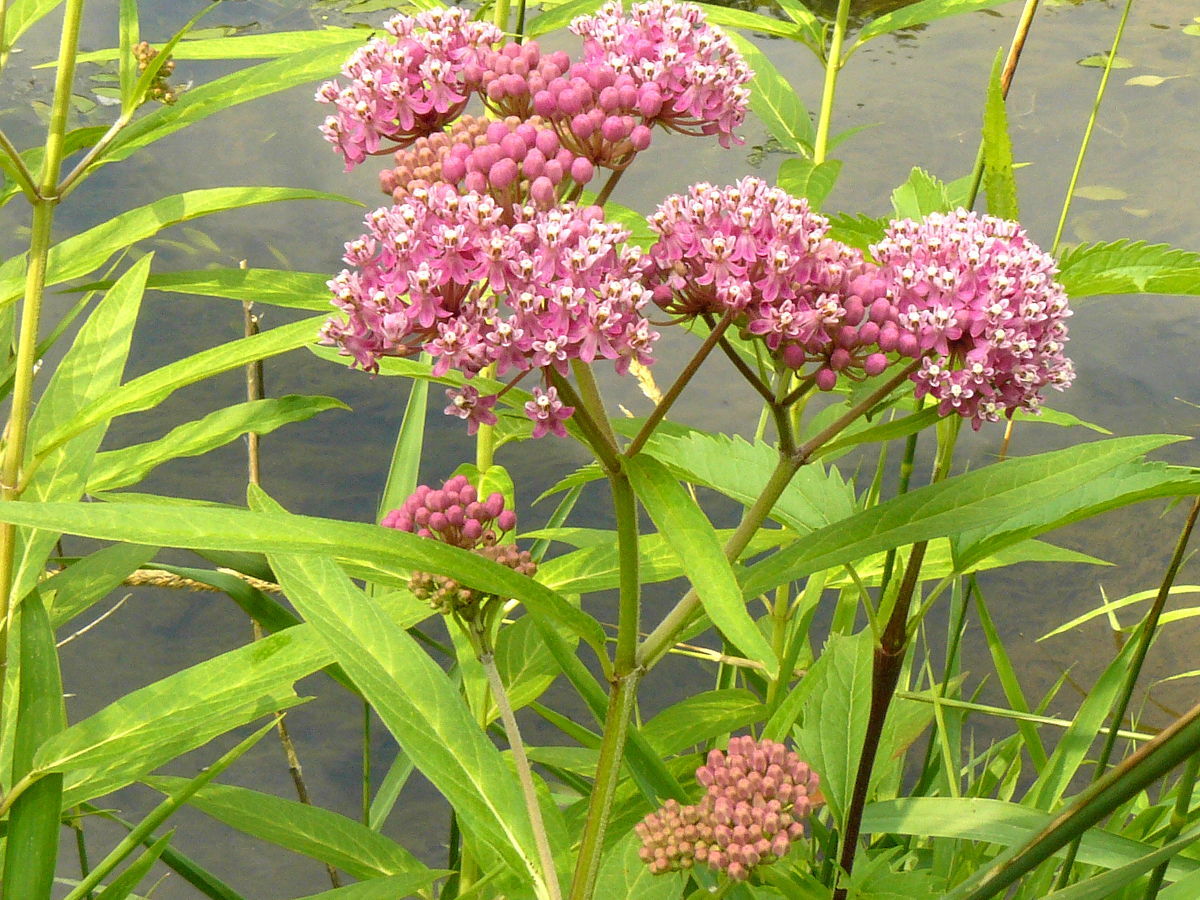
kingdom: Plantae
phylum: Tracheophyta
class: Magnoliopsida
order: Gentianales
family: Apocynaceae
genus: Asclepias
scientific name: Asclepias incarnata
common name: Swamp milkweed
